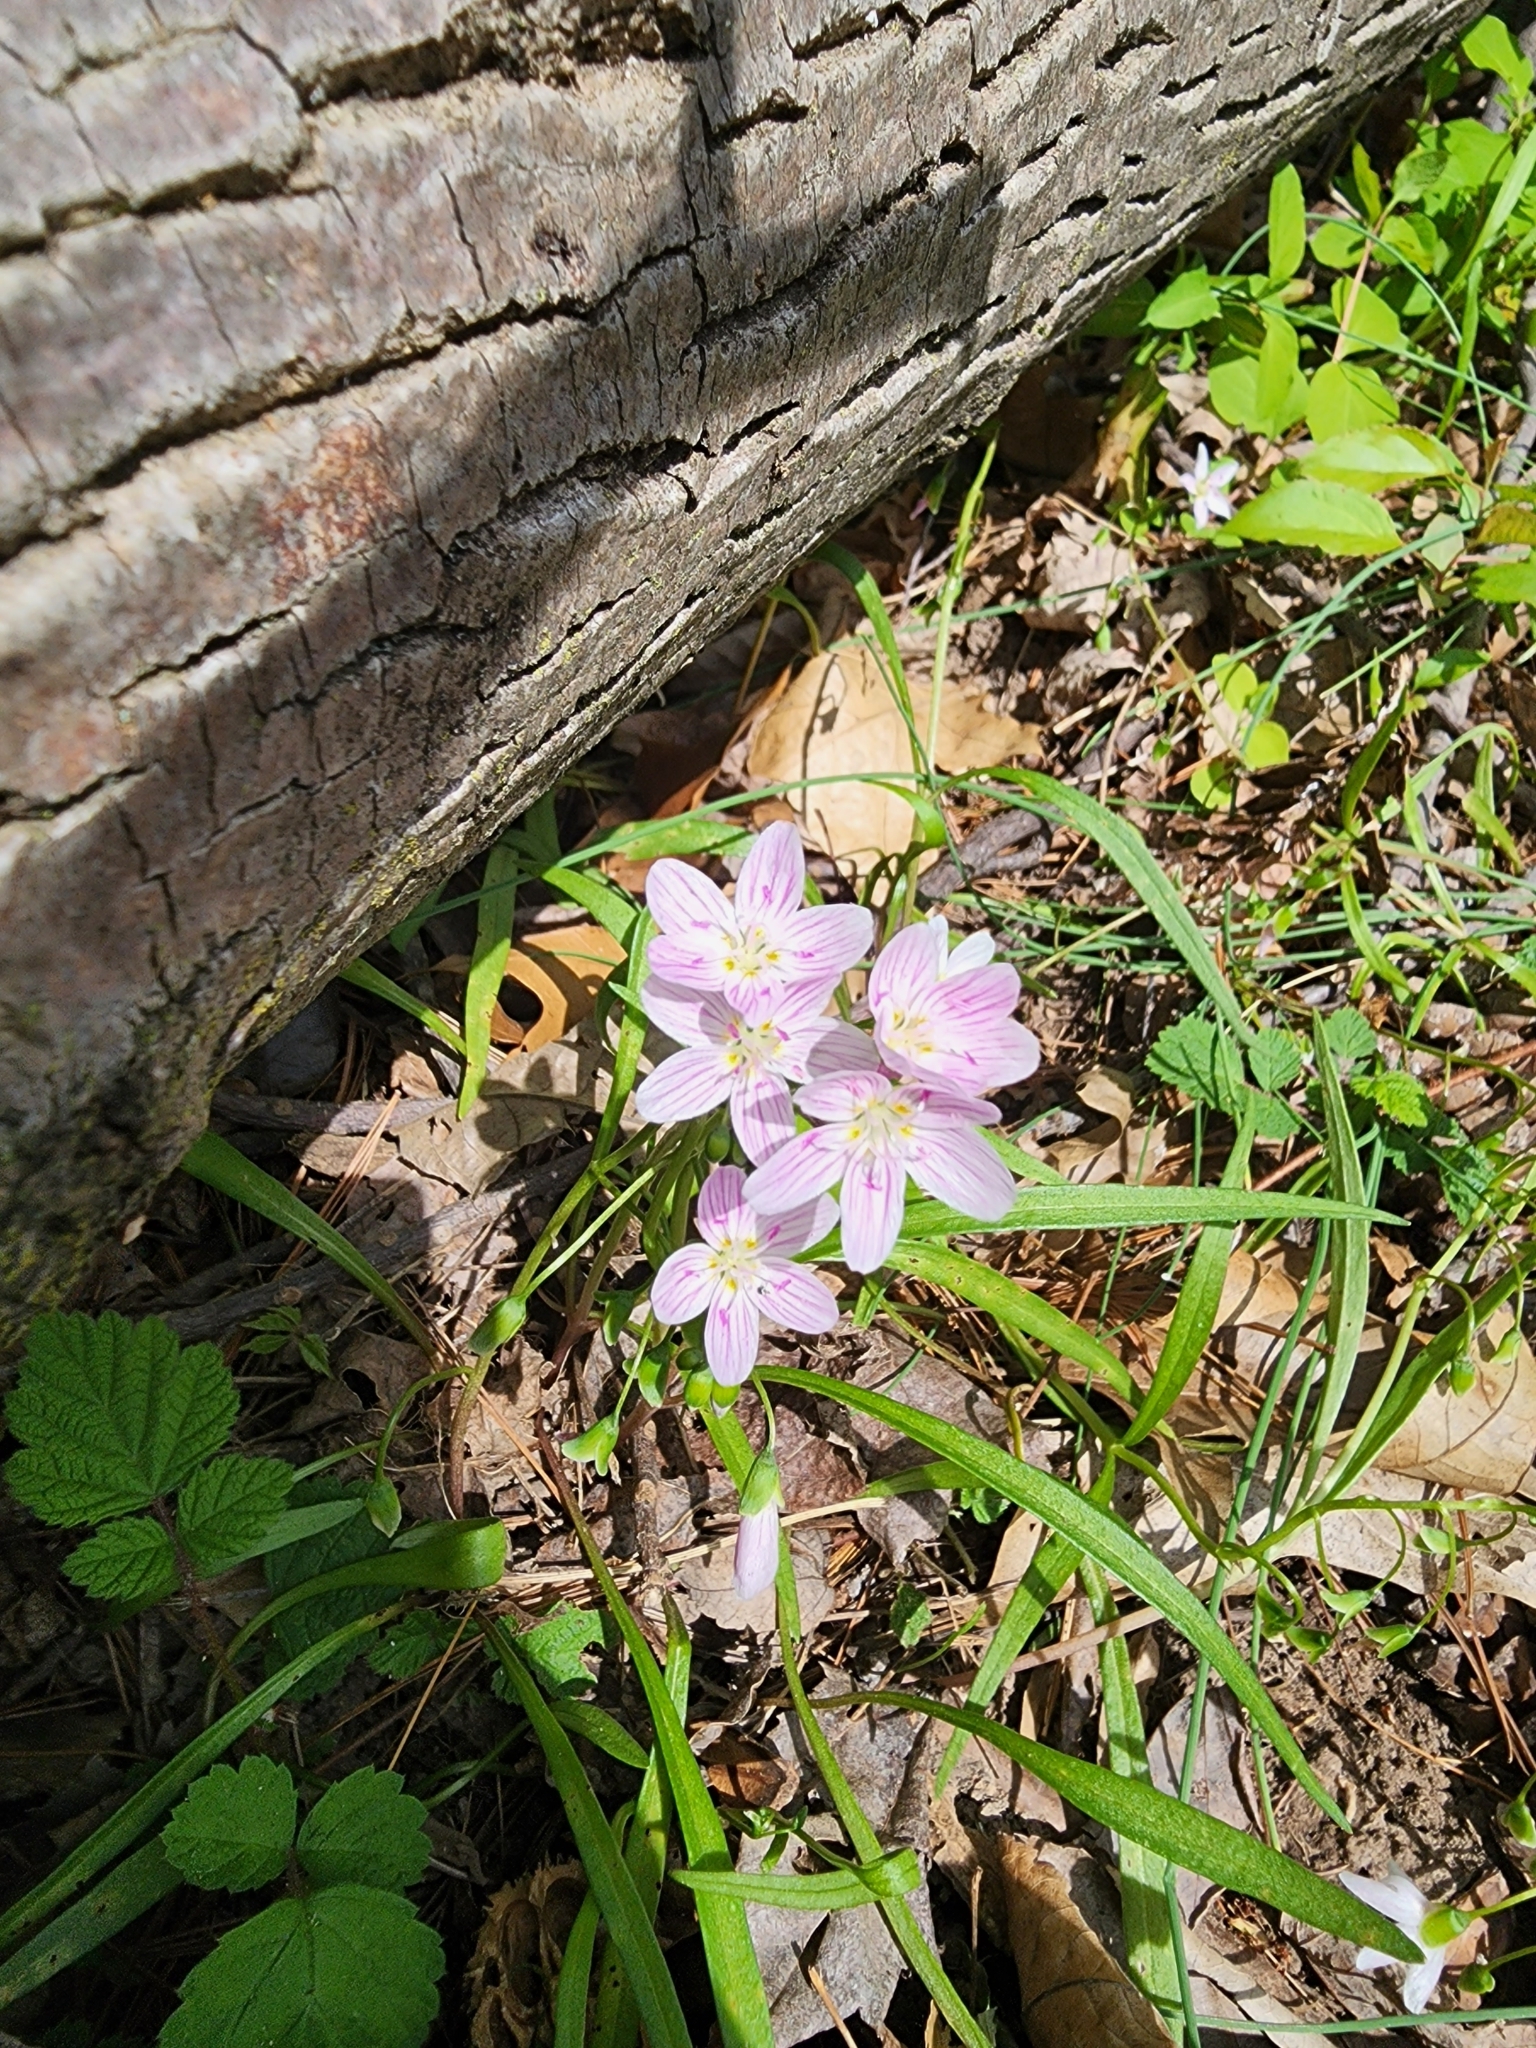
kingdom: Plantae
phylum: Tracheophyta
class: Magnoliopsida
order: Caryophyllales
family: Montiaceae
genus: Claytonia
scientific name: Claytonia virginica
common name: Virginia springbeauty
